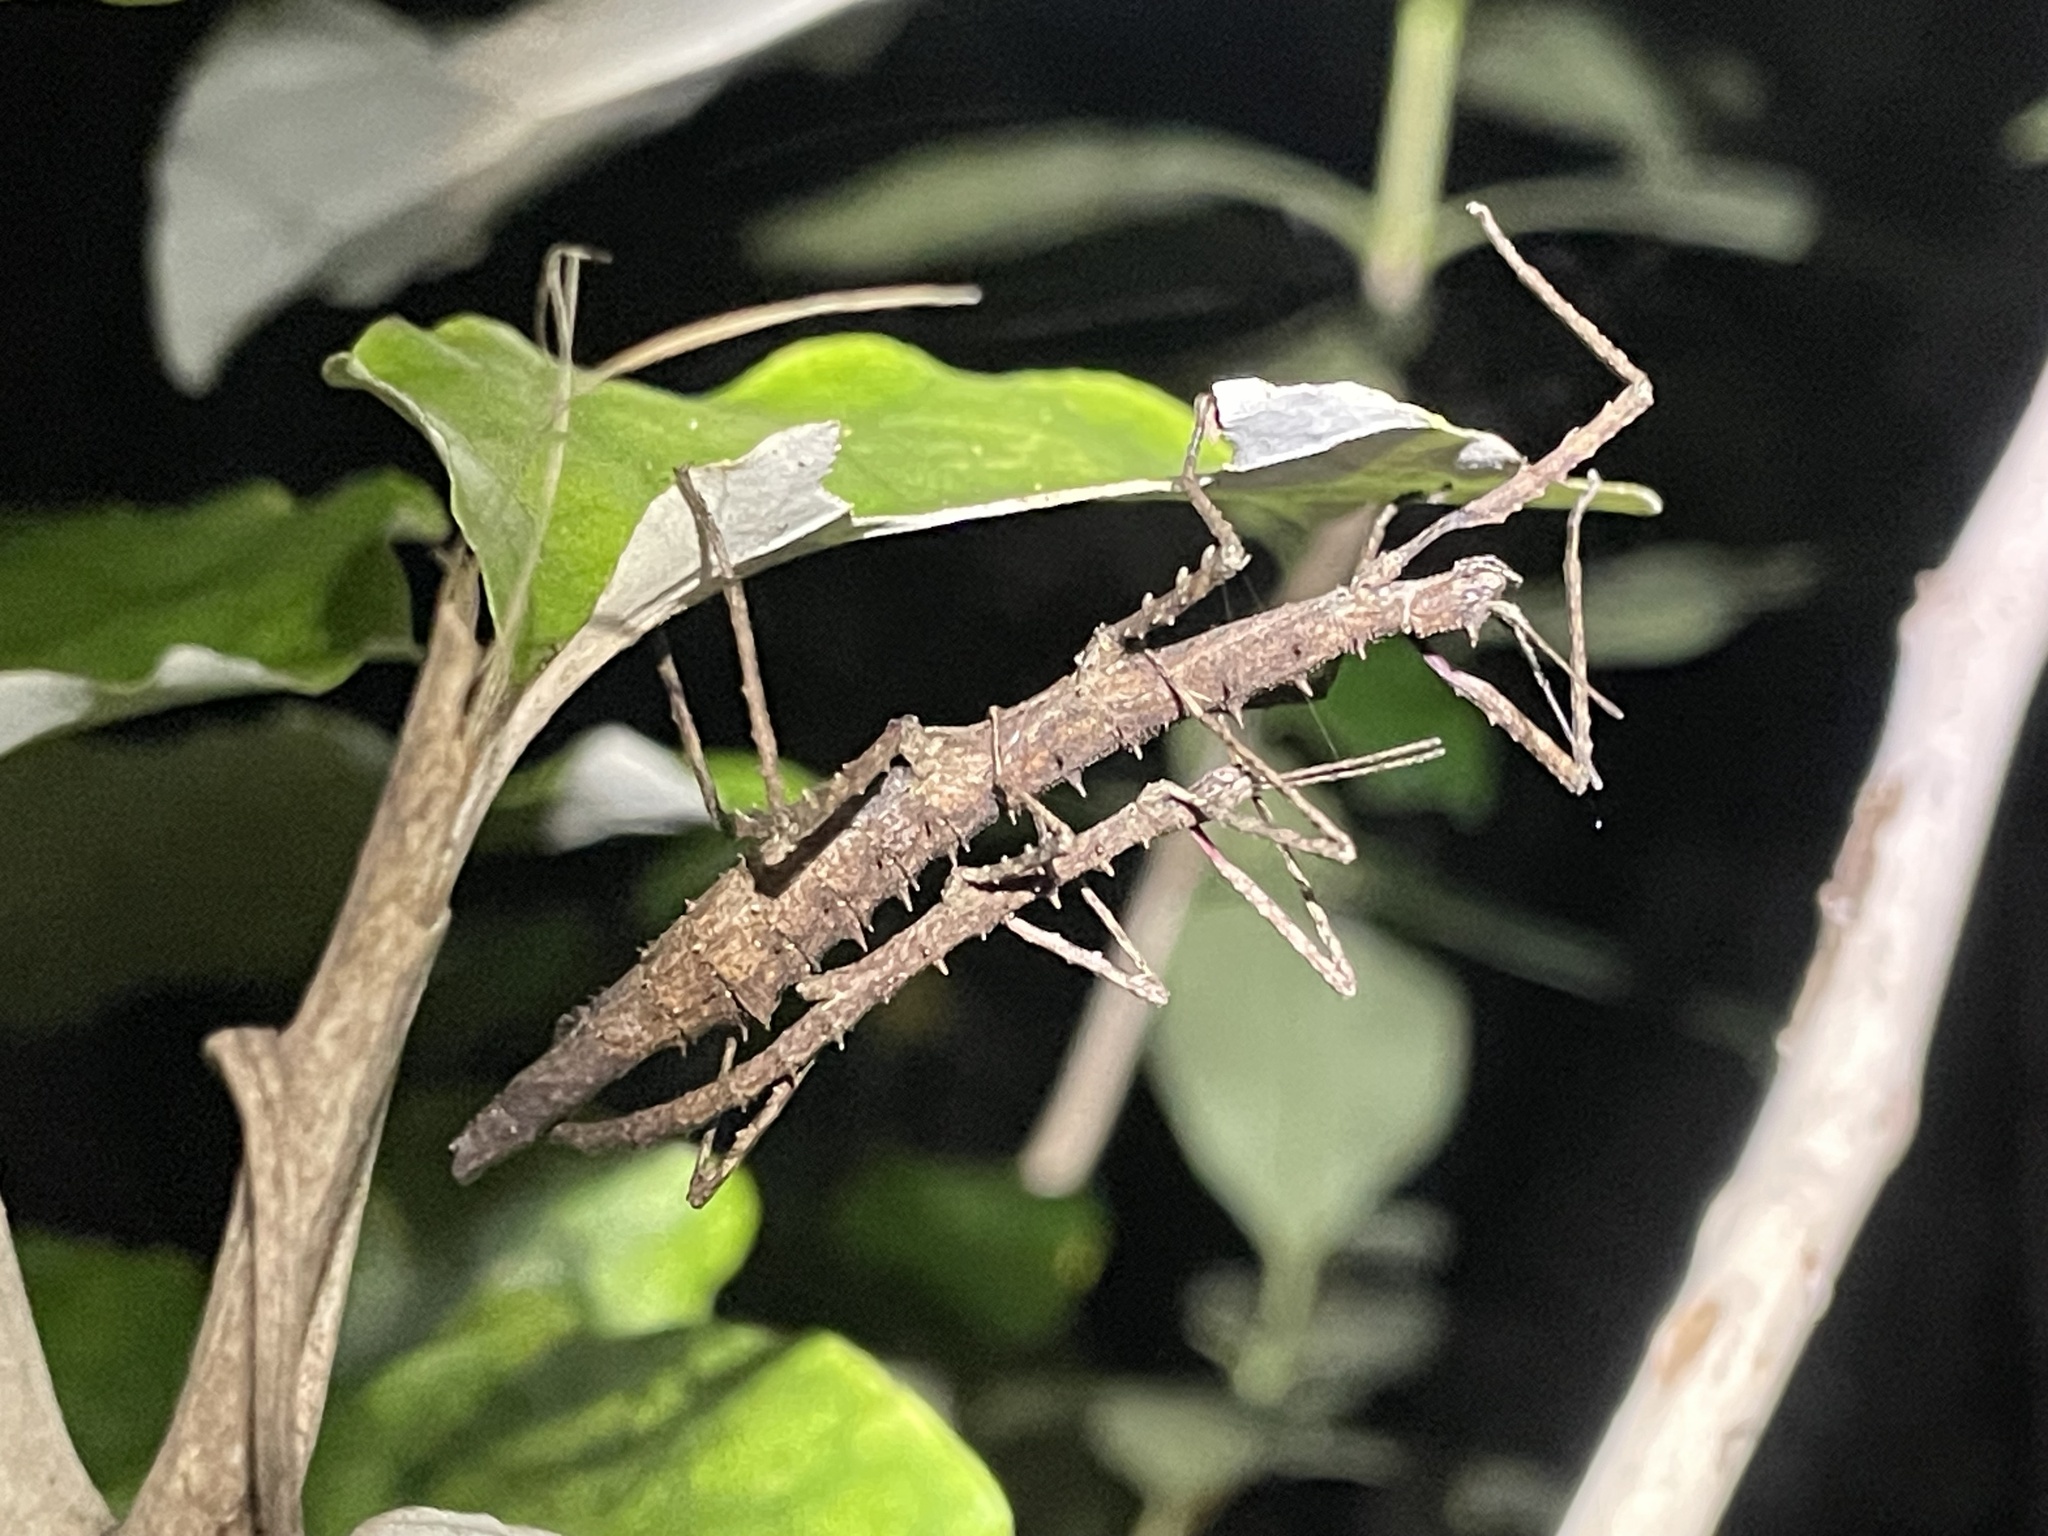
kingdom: Animalia
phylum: Arthropoda
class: Insecta
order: Phasmida
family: Phasmatidae
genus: Micrarchus
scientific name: Micrarchus hystriculeus
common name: The lesser spiny stick insect
